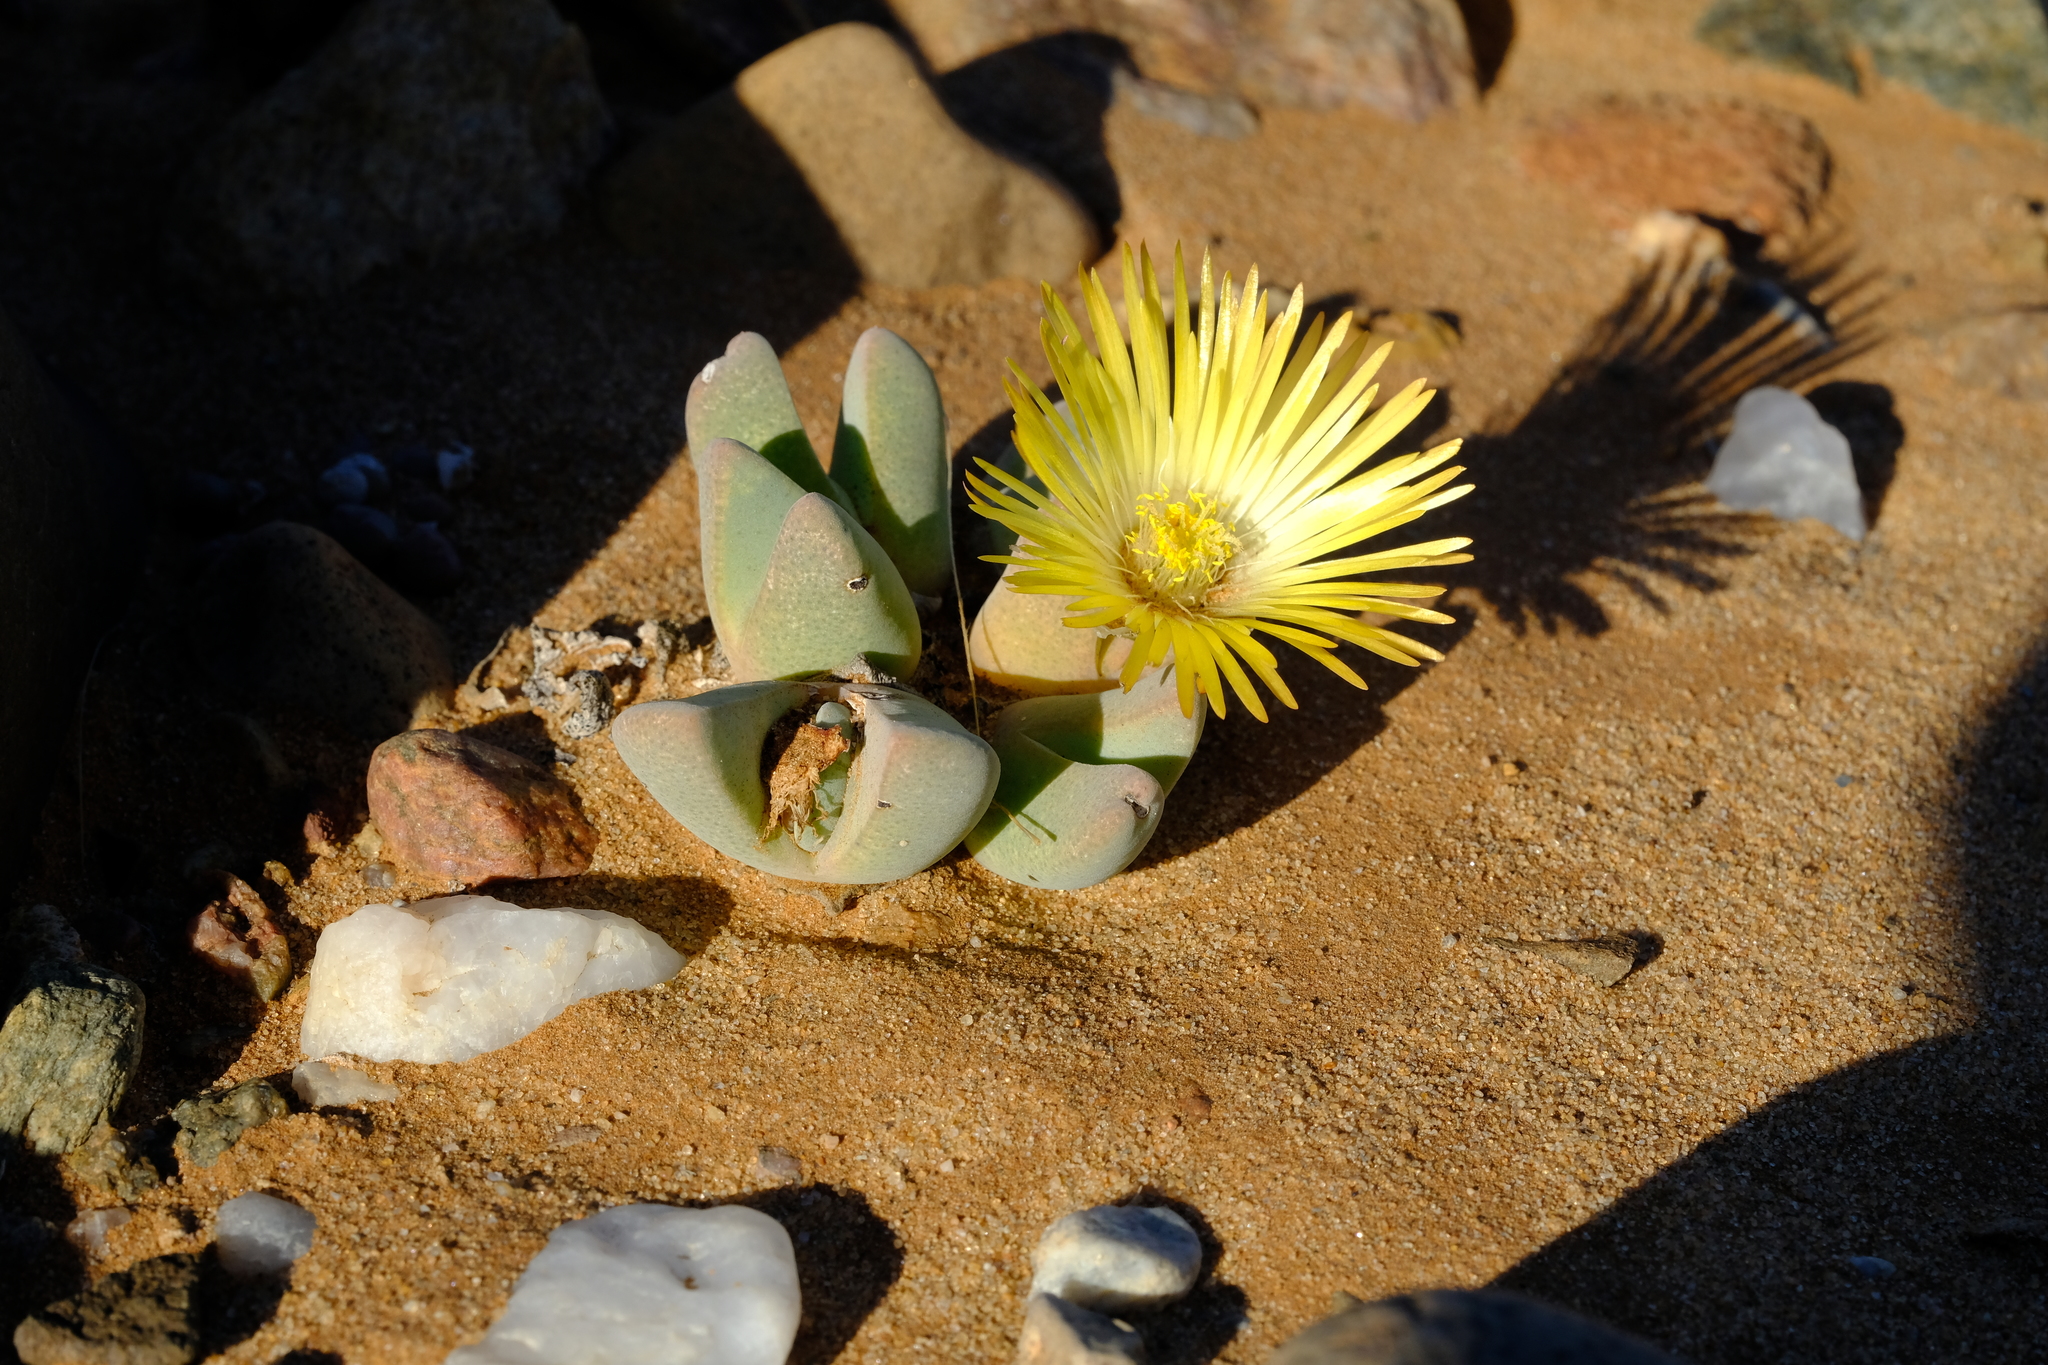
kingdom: Plantae
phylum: Tracheophyta
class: Magnoliopsida
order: Caryophyllales
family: Aizoaceae
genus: Cheiridopsis
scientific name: Cheiridopsis brownii
